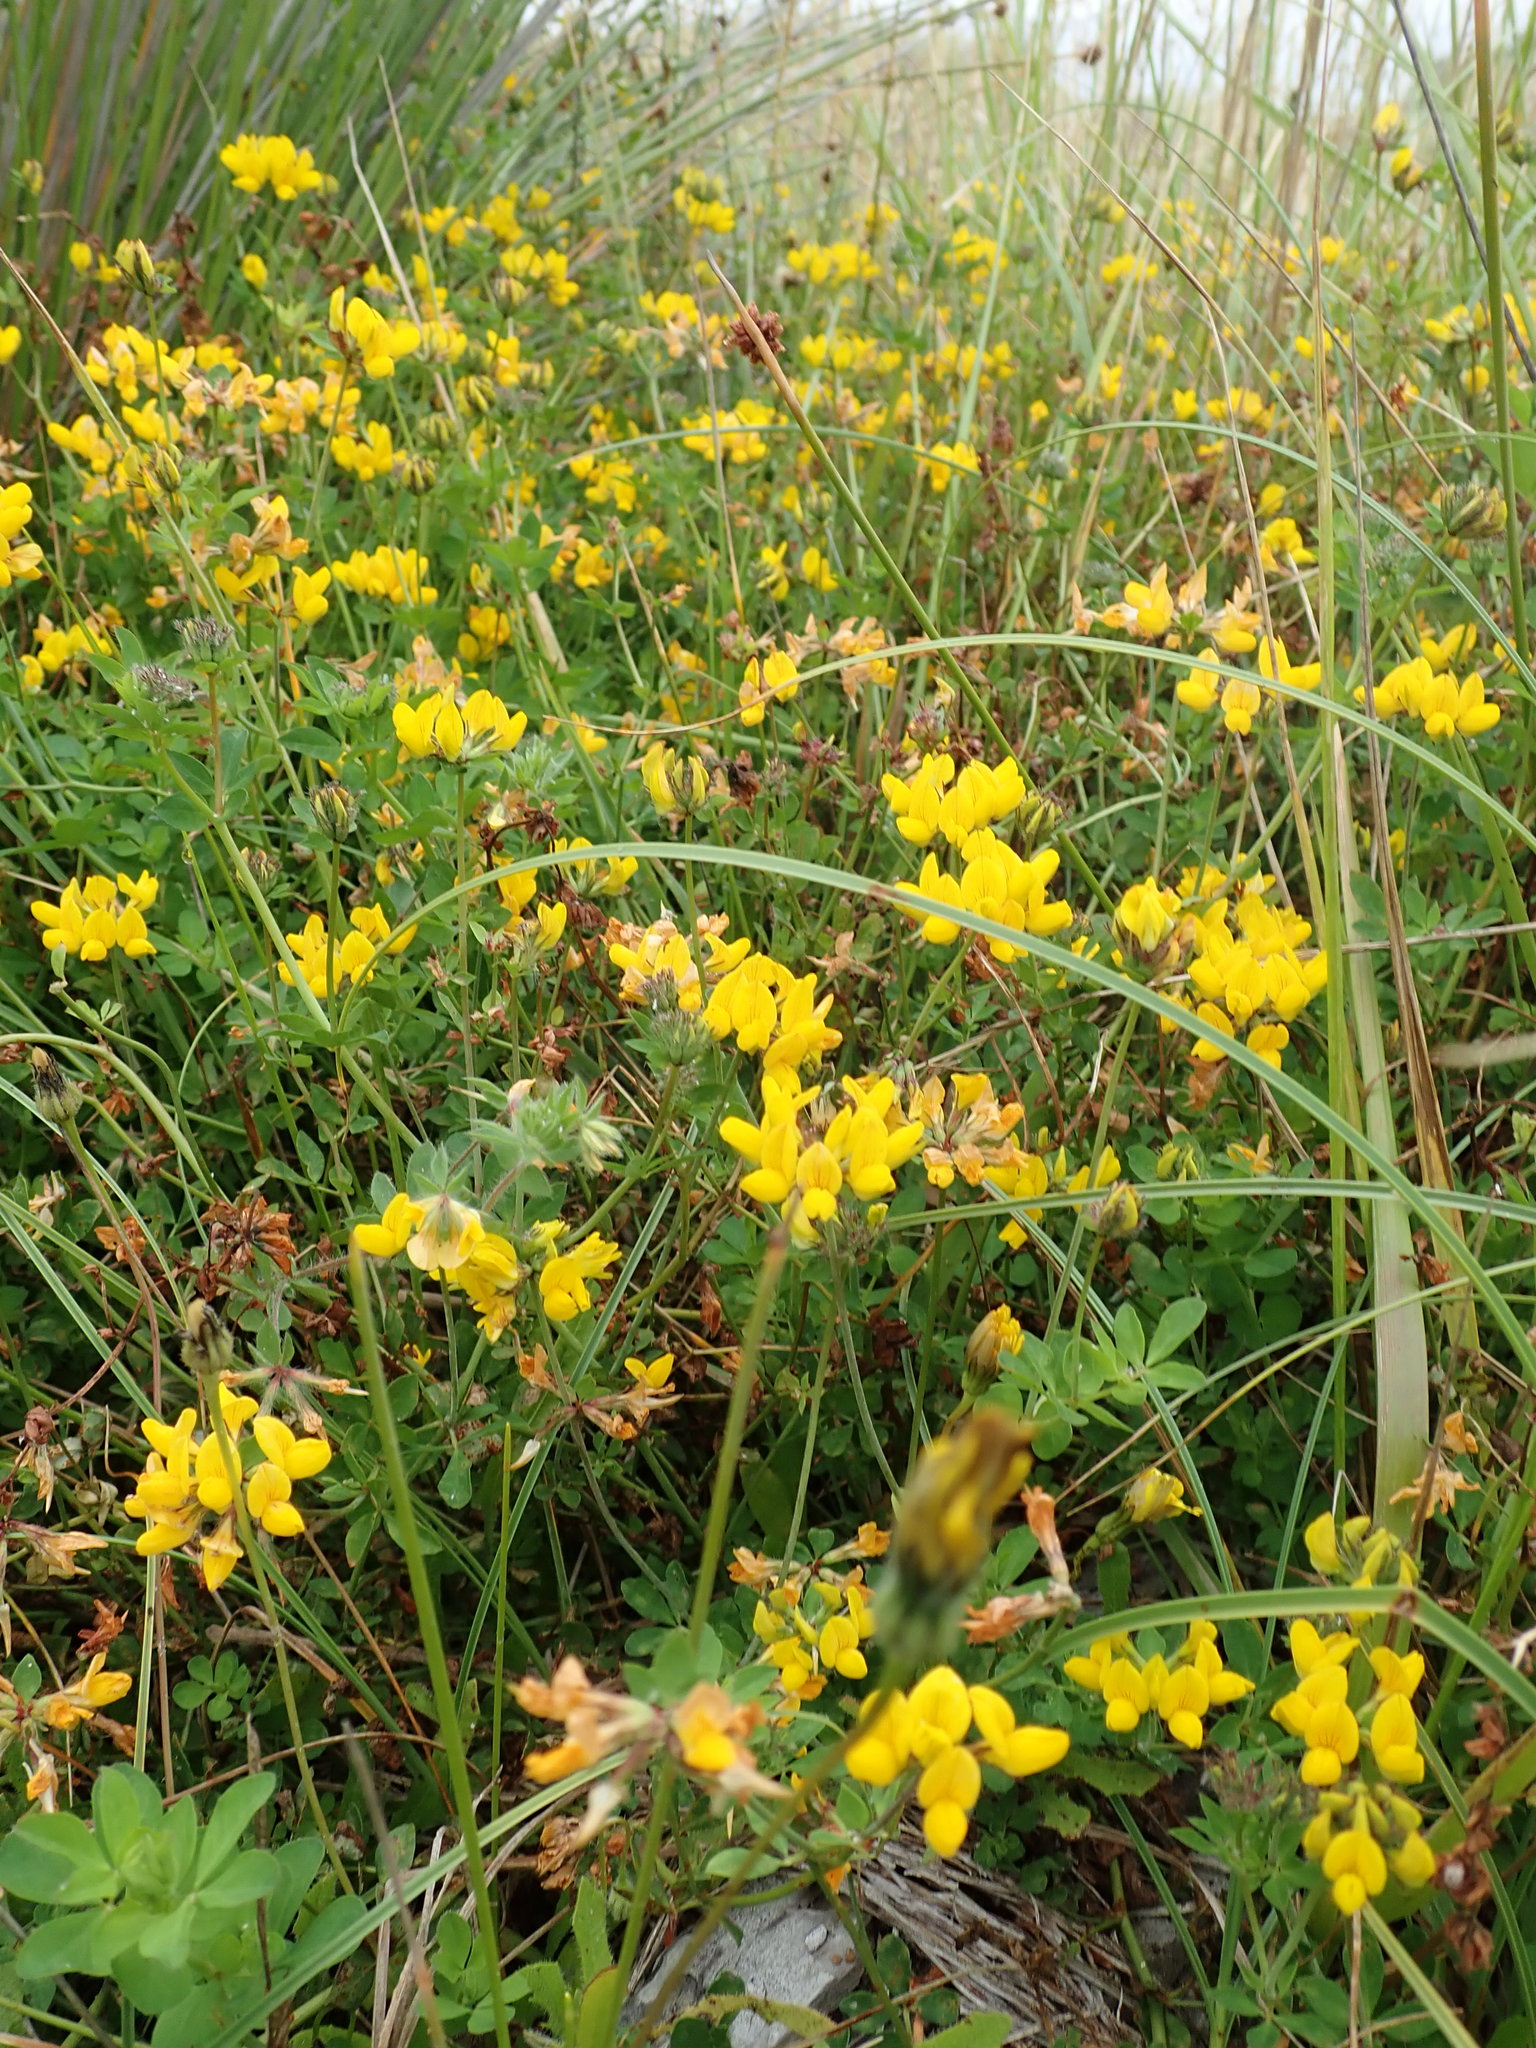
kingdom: Plantae
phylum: Tracheophyta
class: Magnoliopsida
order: Fabales
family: Fabaceae
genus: Lotus
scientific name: Lotus pedunculatus
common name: Greater birdsfoot-trefoil
